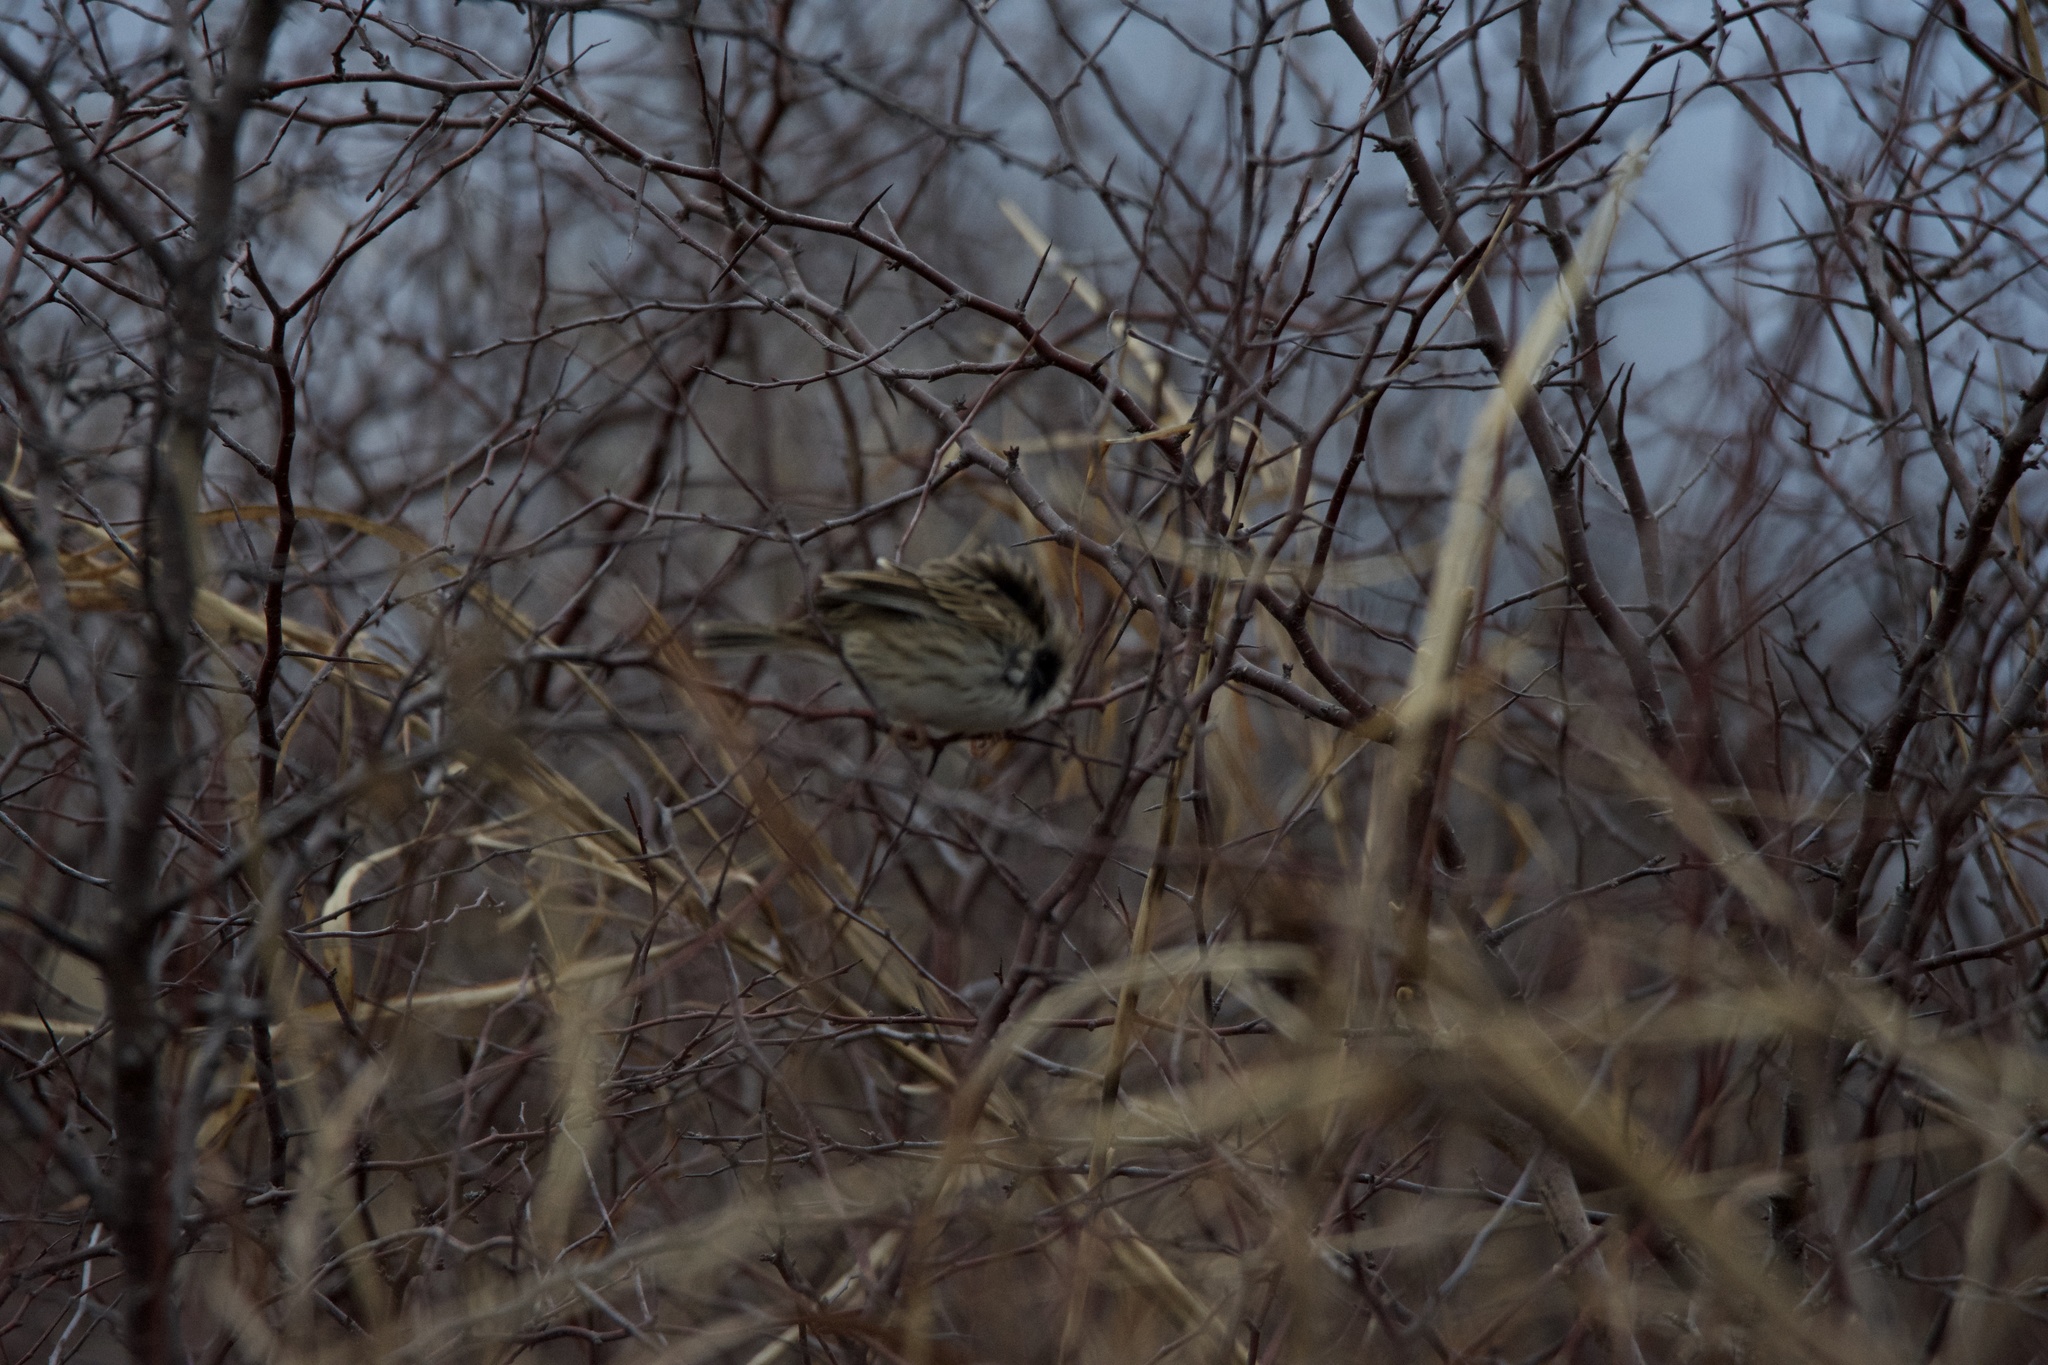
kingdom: Animalia
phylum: Chordata
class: Aves
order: Passeriformes
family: Passerellidae
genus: Passerculus
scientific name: Passerculus sandwichensis
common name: Savannah sparrow
